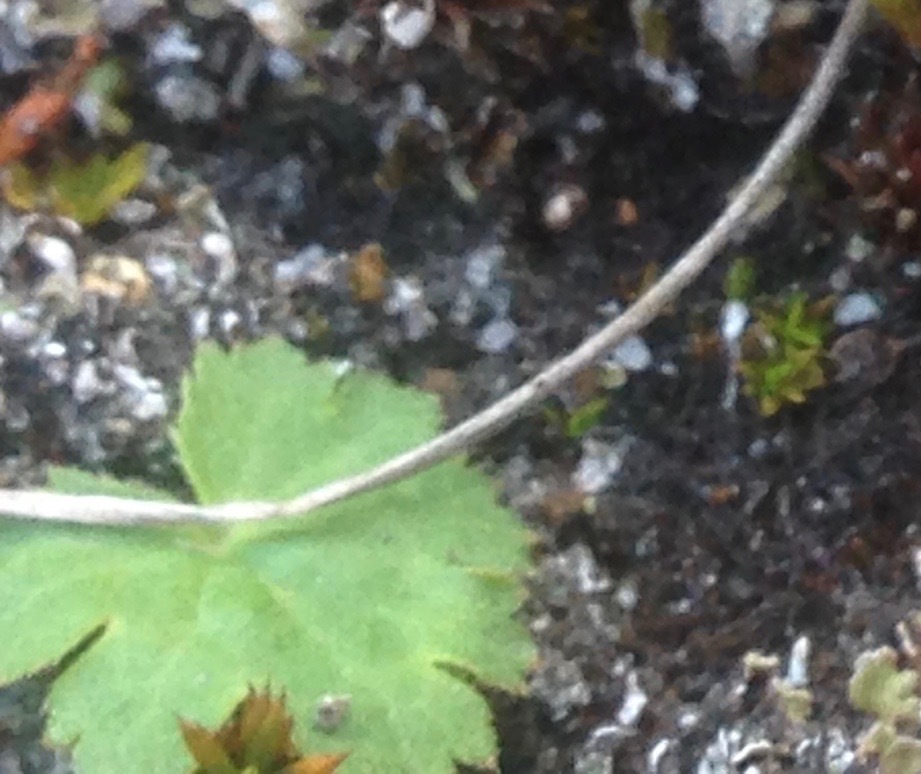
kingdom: Plantae
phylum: Tracheophyta
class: Magnoliopsida
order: Saxifragales
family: Saxifragaceae
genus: Jepsonia
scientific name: Jepsonia malvifolia
